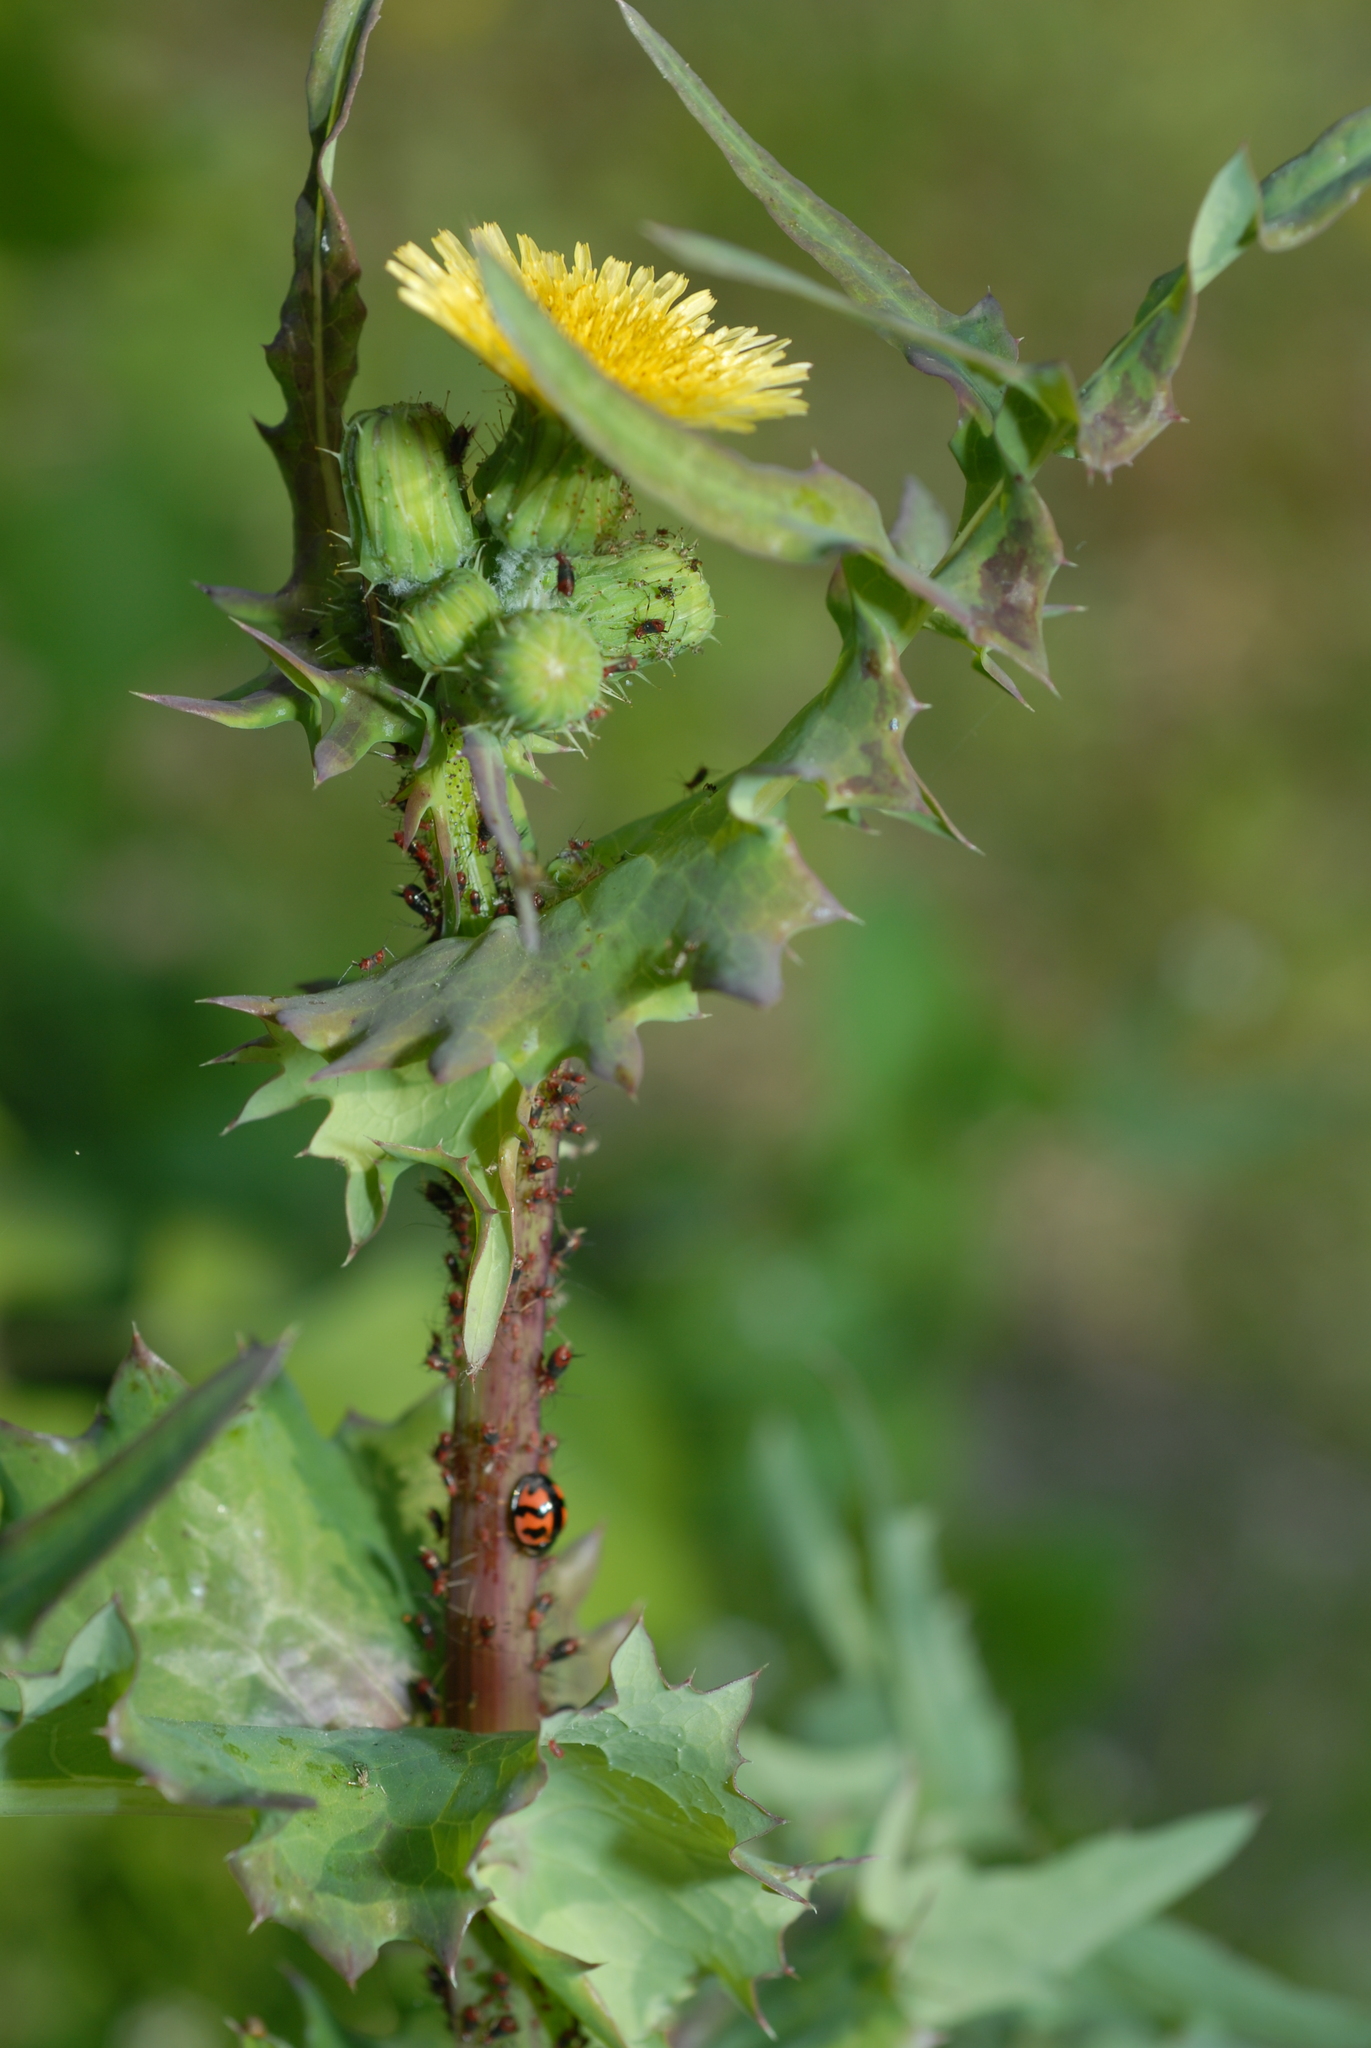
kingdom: Plantae
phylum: Tracheophyta
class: Magnoliopsida
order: Asterales
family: Asteraceae
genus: Sonchus
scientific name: Sonchus oleraceus
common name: Common sowthistle
